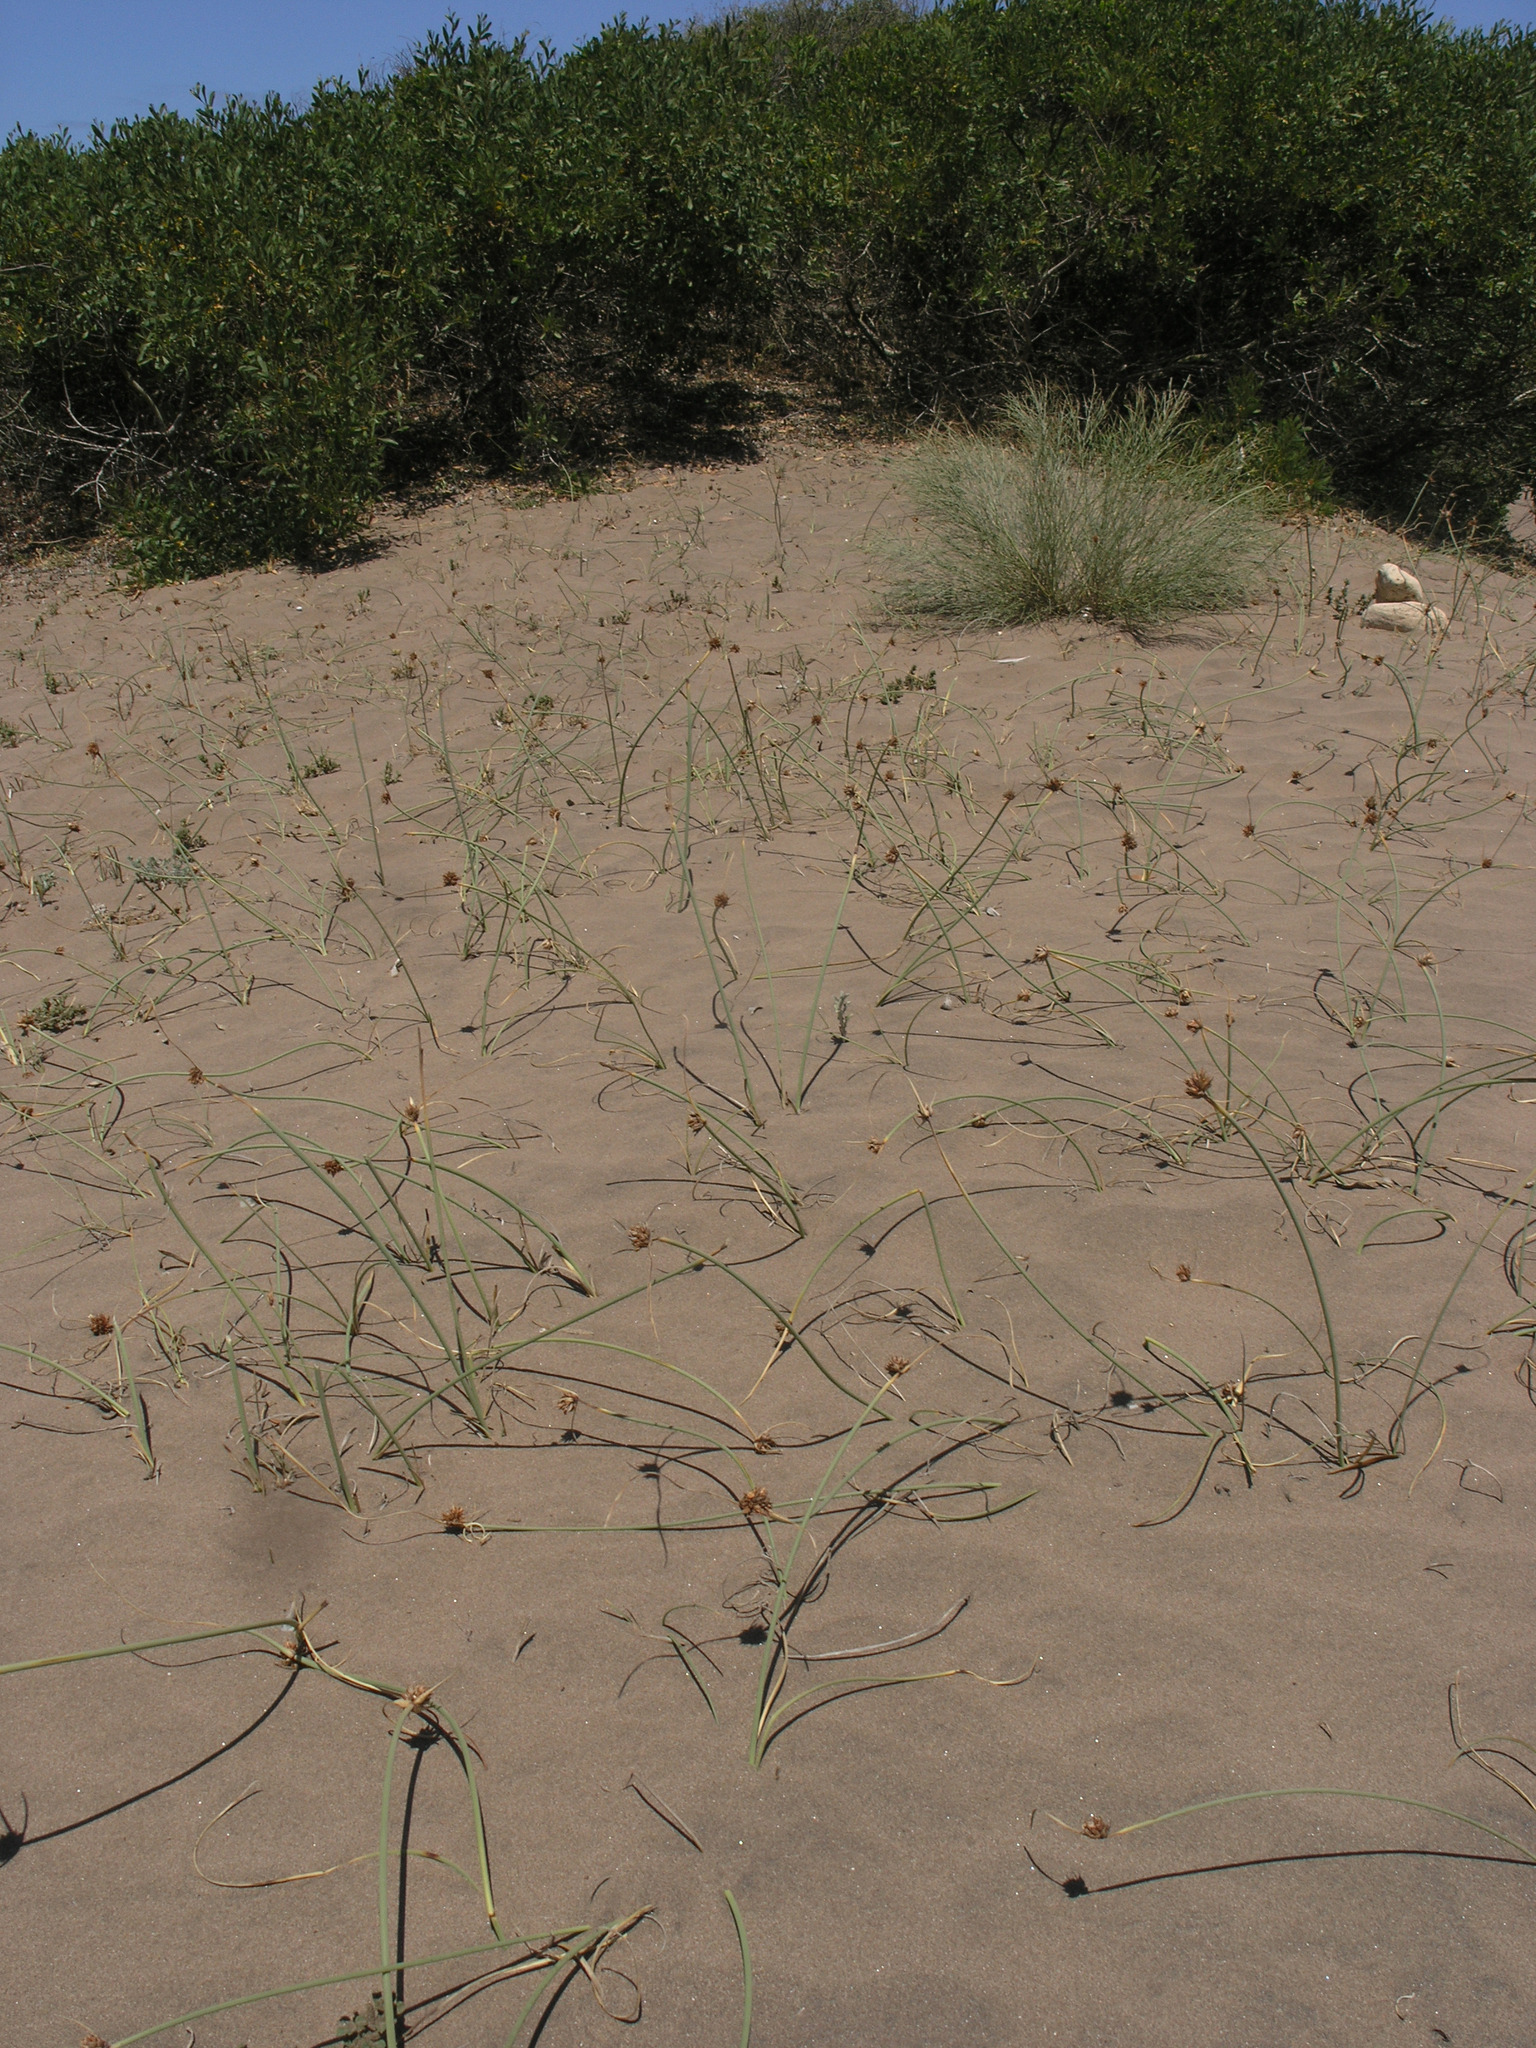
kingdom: Plantae
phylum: Tracheophyta
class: Liliopsida
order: Poales
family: Cyperaceae
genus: Cyperus
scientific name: Cyperus capitatus
